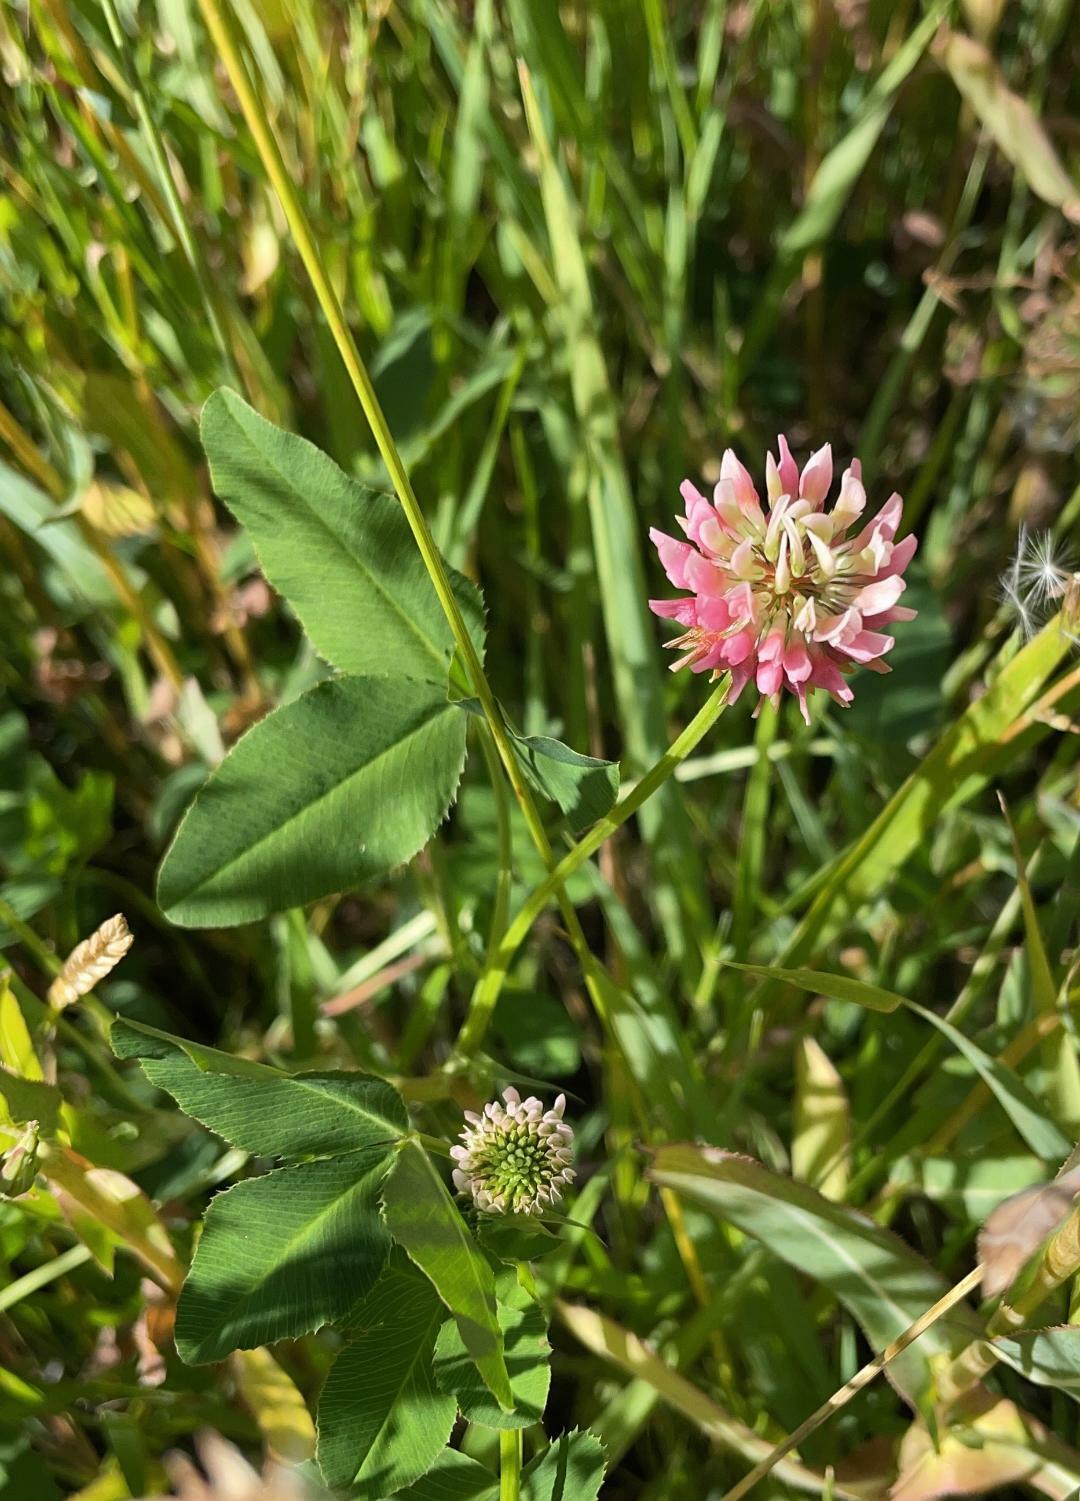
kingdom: Plantae
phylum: Tracheophyta
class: Magnoliopsida
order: Fabales
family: Fabaceae
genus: Trifolium
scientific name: Trifolium hybridum
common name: Alsike clover
